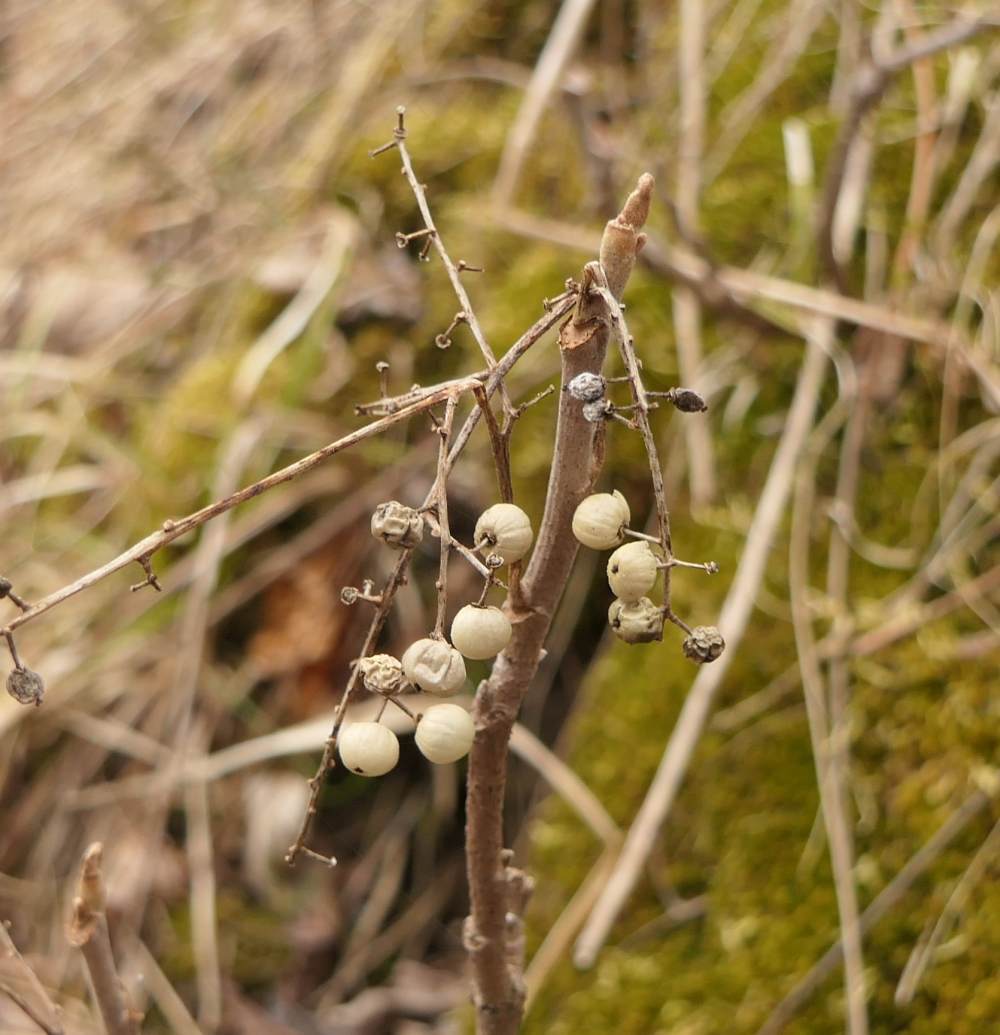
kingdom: Plantae
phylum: Tracheophyta
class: Magnoliopsida
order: Sapindales
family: Anacardiaceae
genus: Toxicodendron
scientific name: Toxicodendron radicans
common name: Poison ivy
